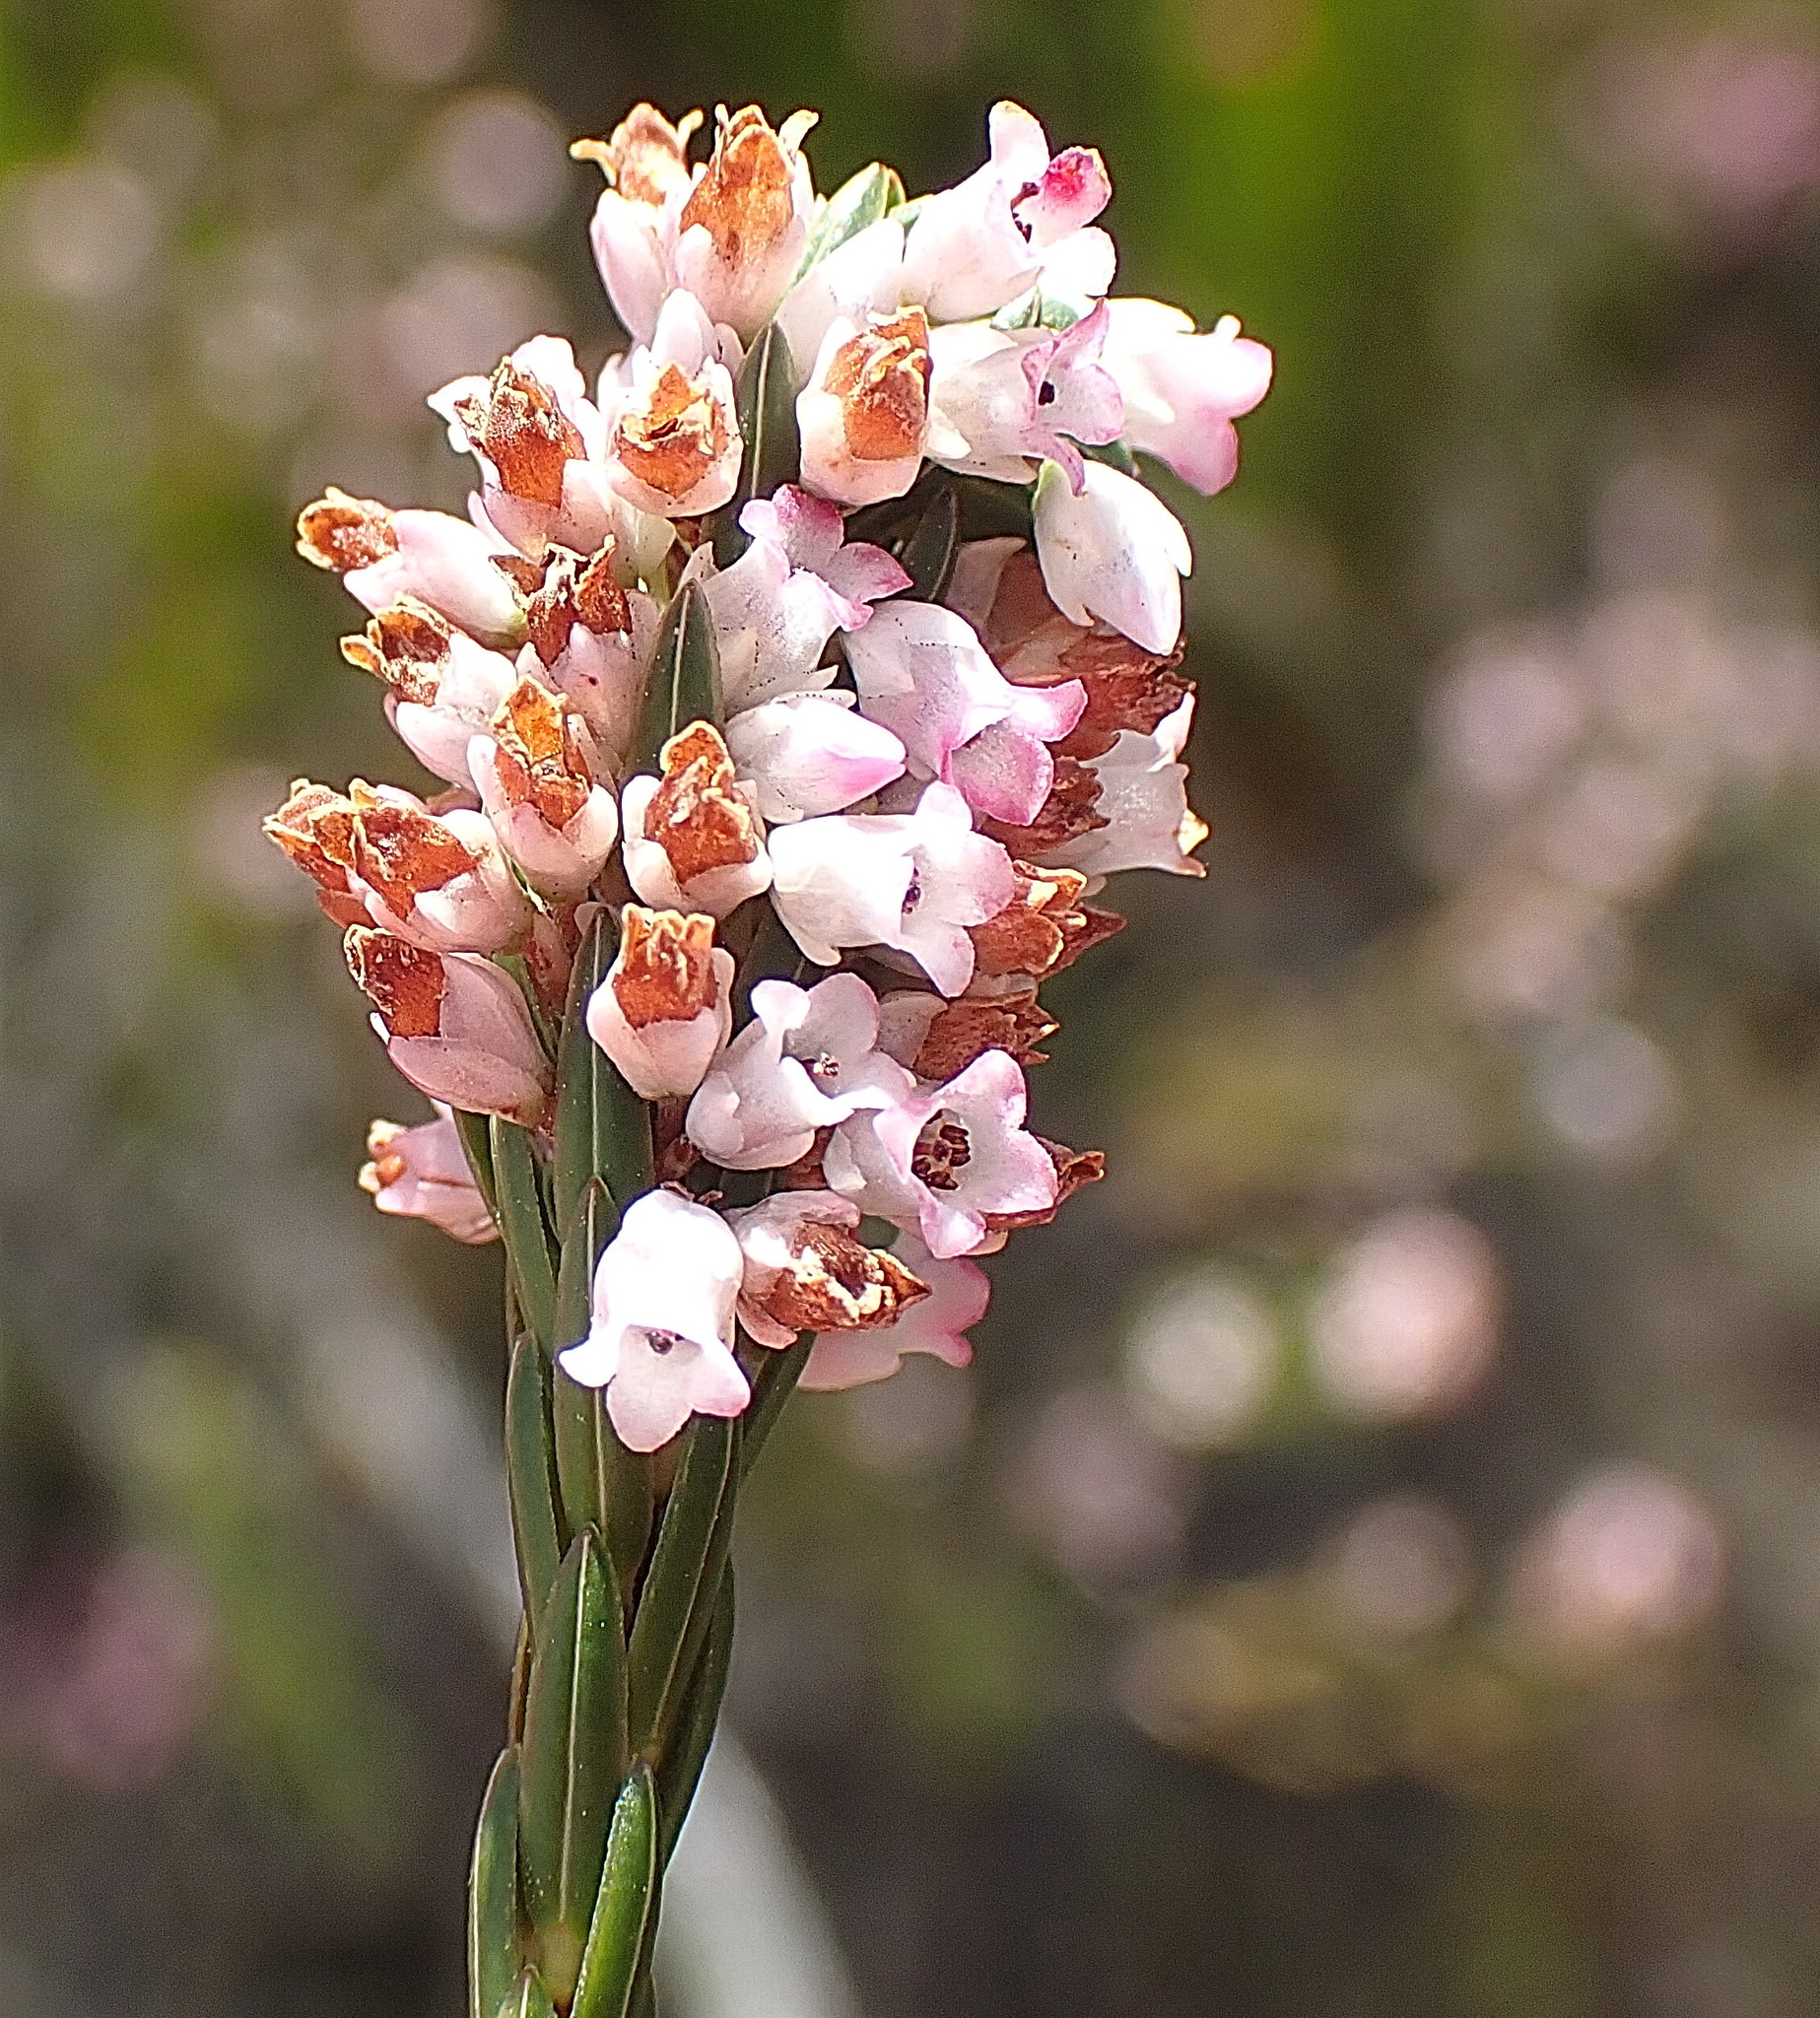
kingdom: Plantae
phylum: Tracheophyta
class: Magnoliopsida
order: Ericales
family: Ericaceae
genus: Erica
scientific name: Erica articularis
